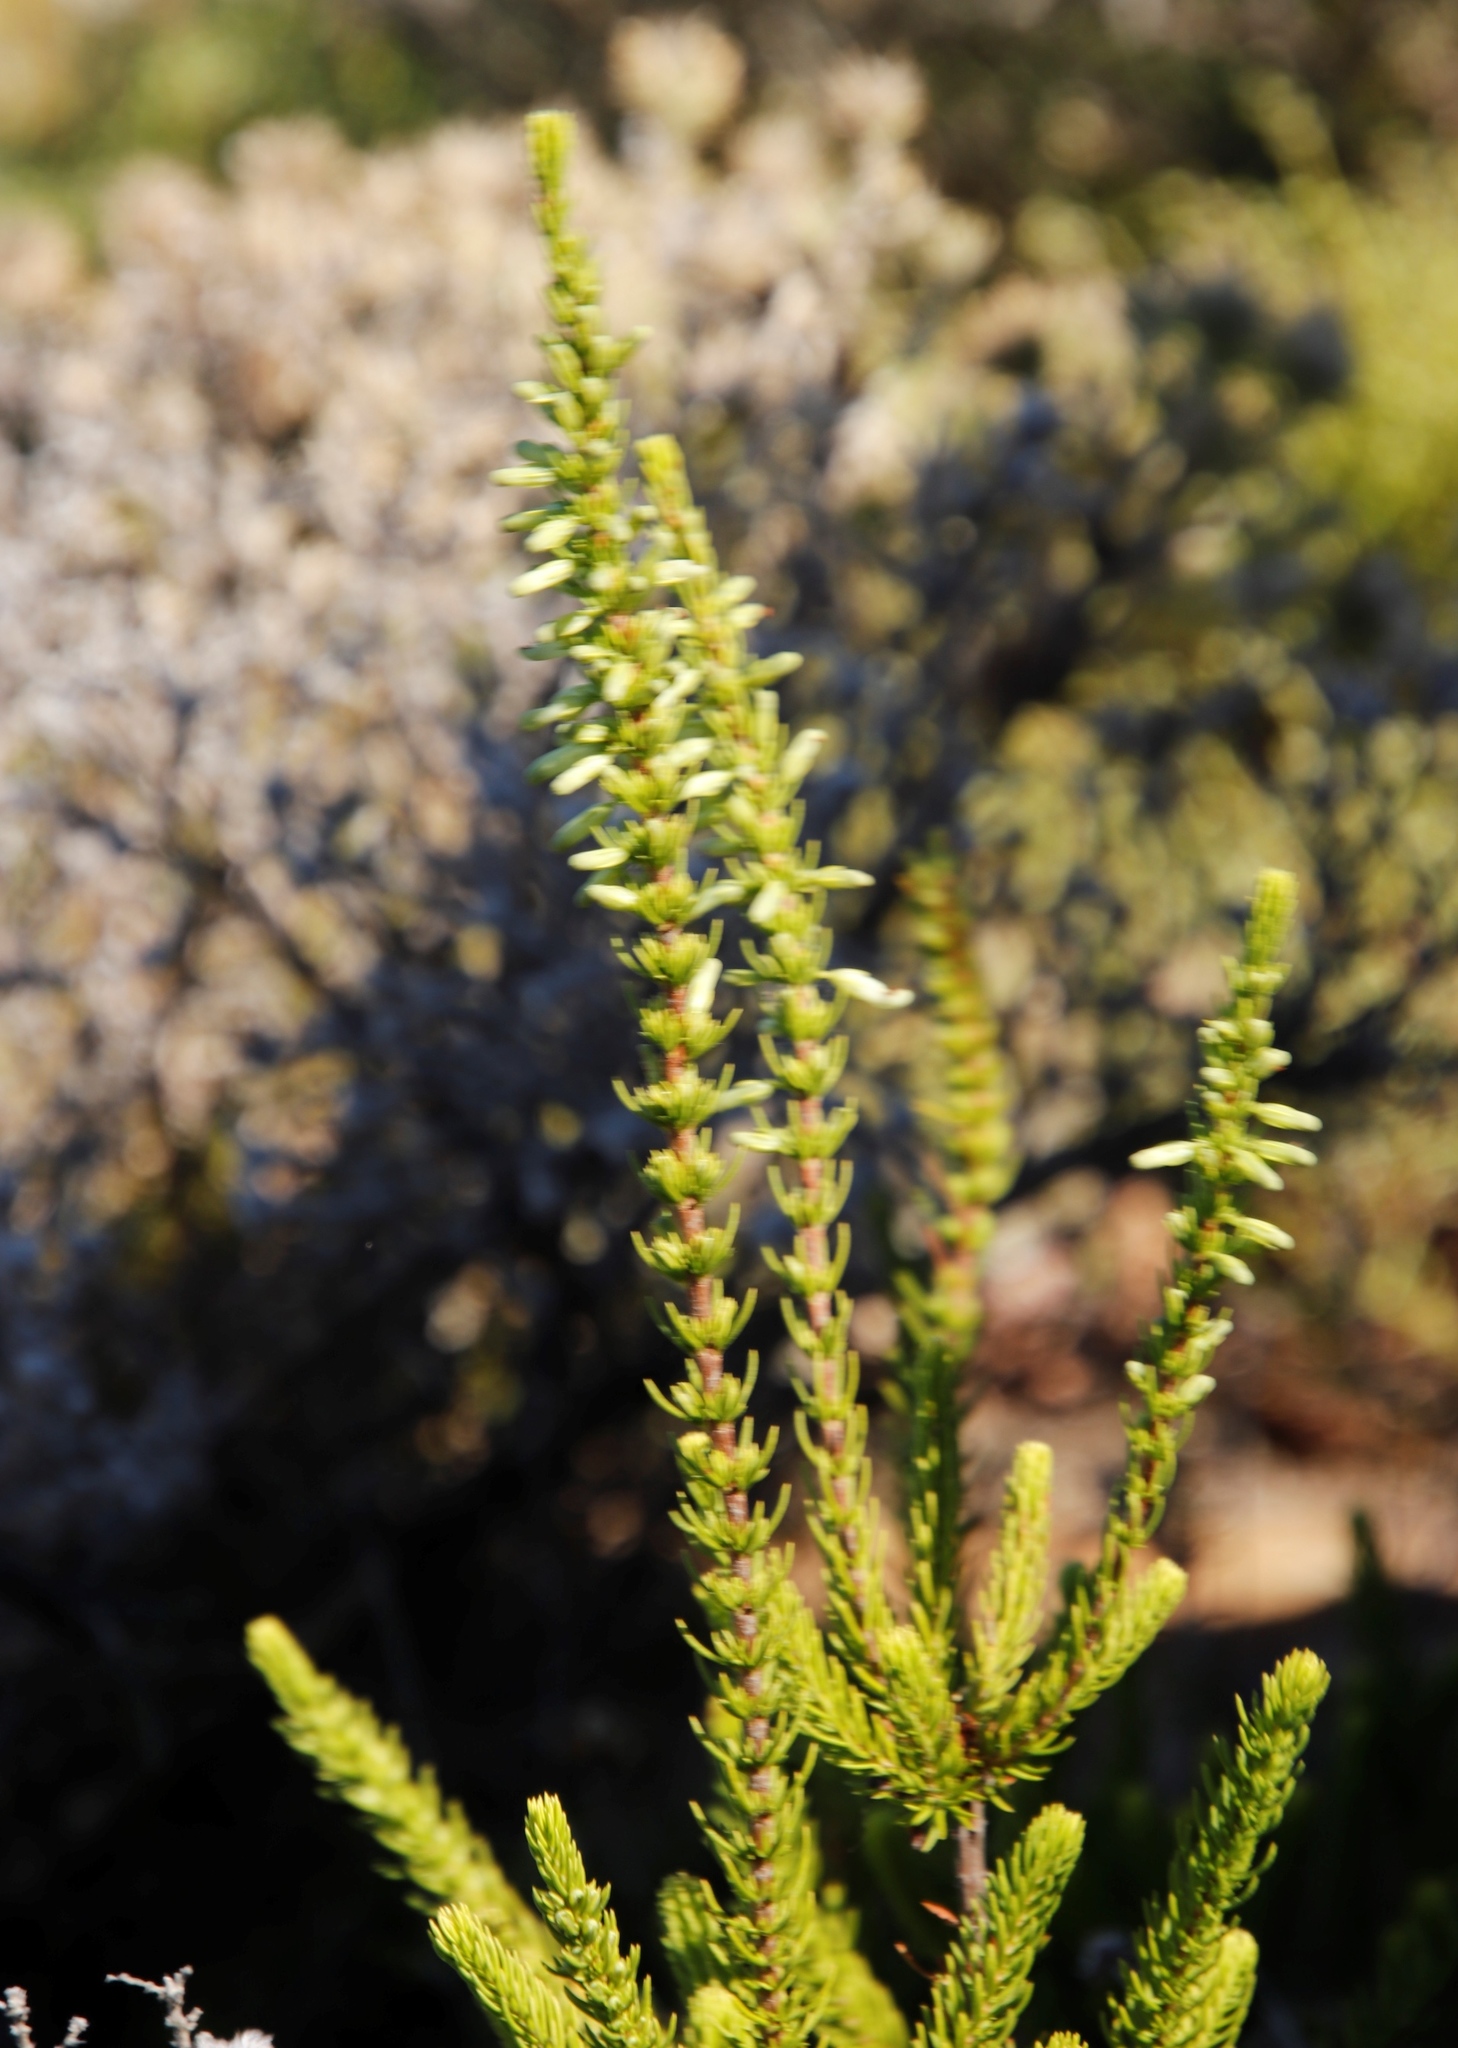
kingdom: Plantae
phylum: Tracheophyta
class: Magnoliopsida
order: Ericales
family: Ericaceae
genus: Erica
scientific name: Erica mammosa
